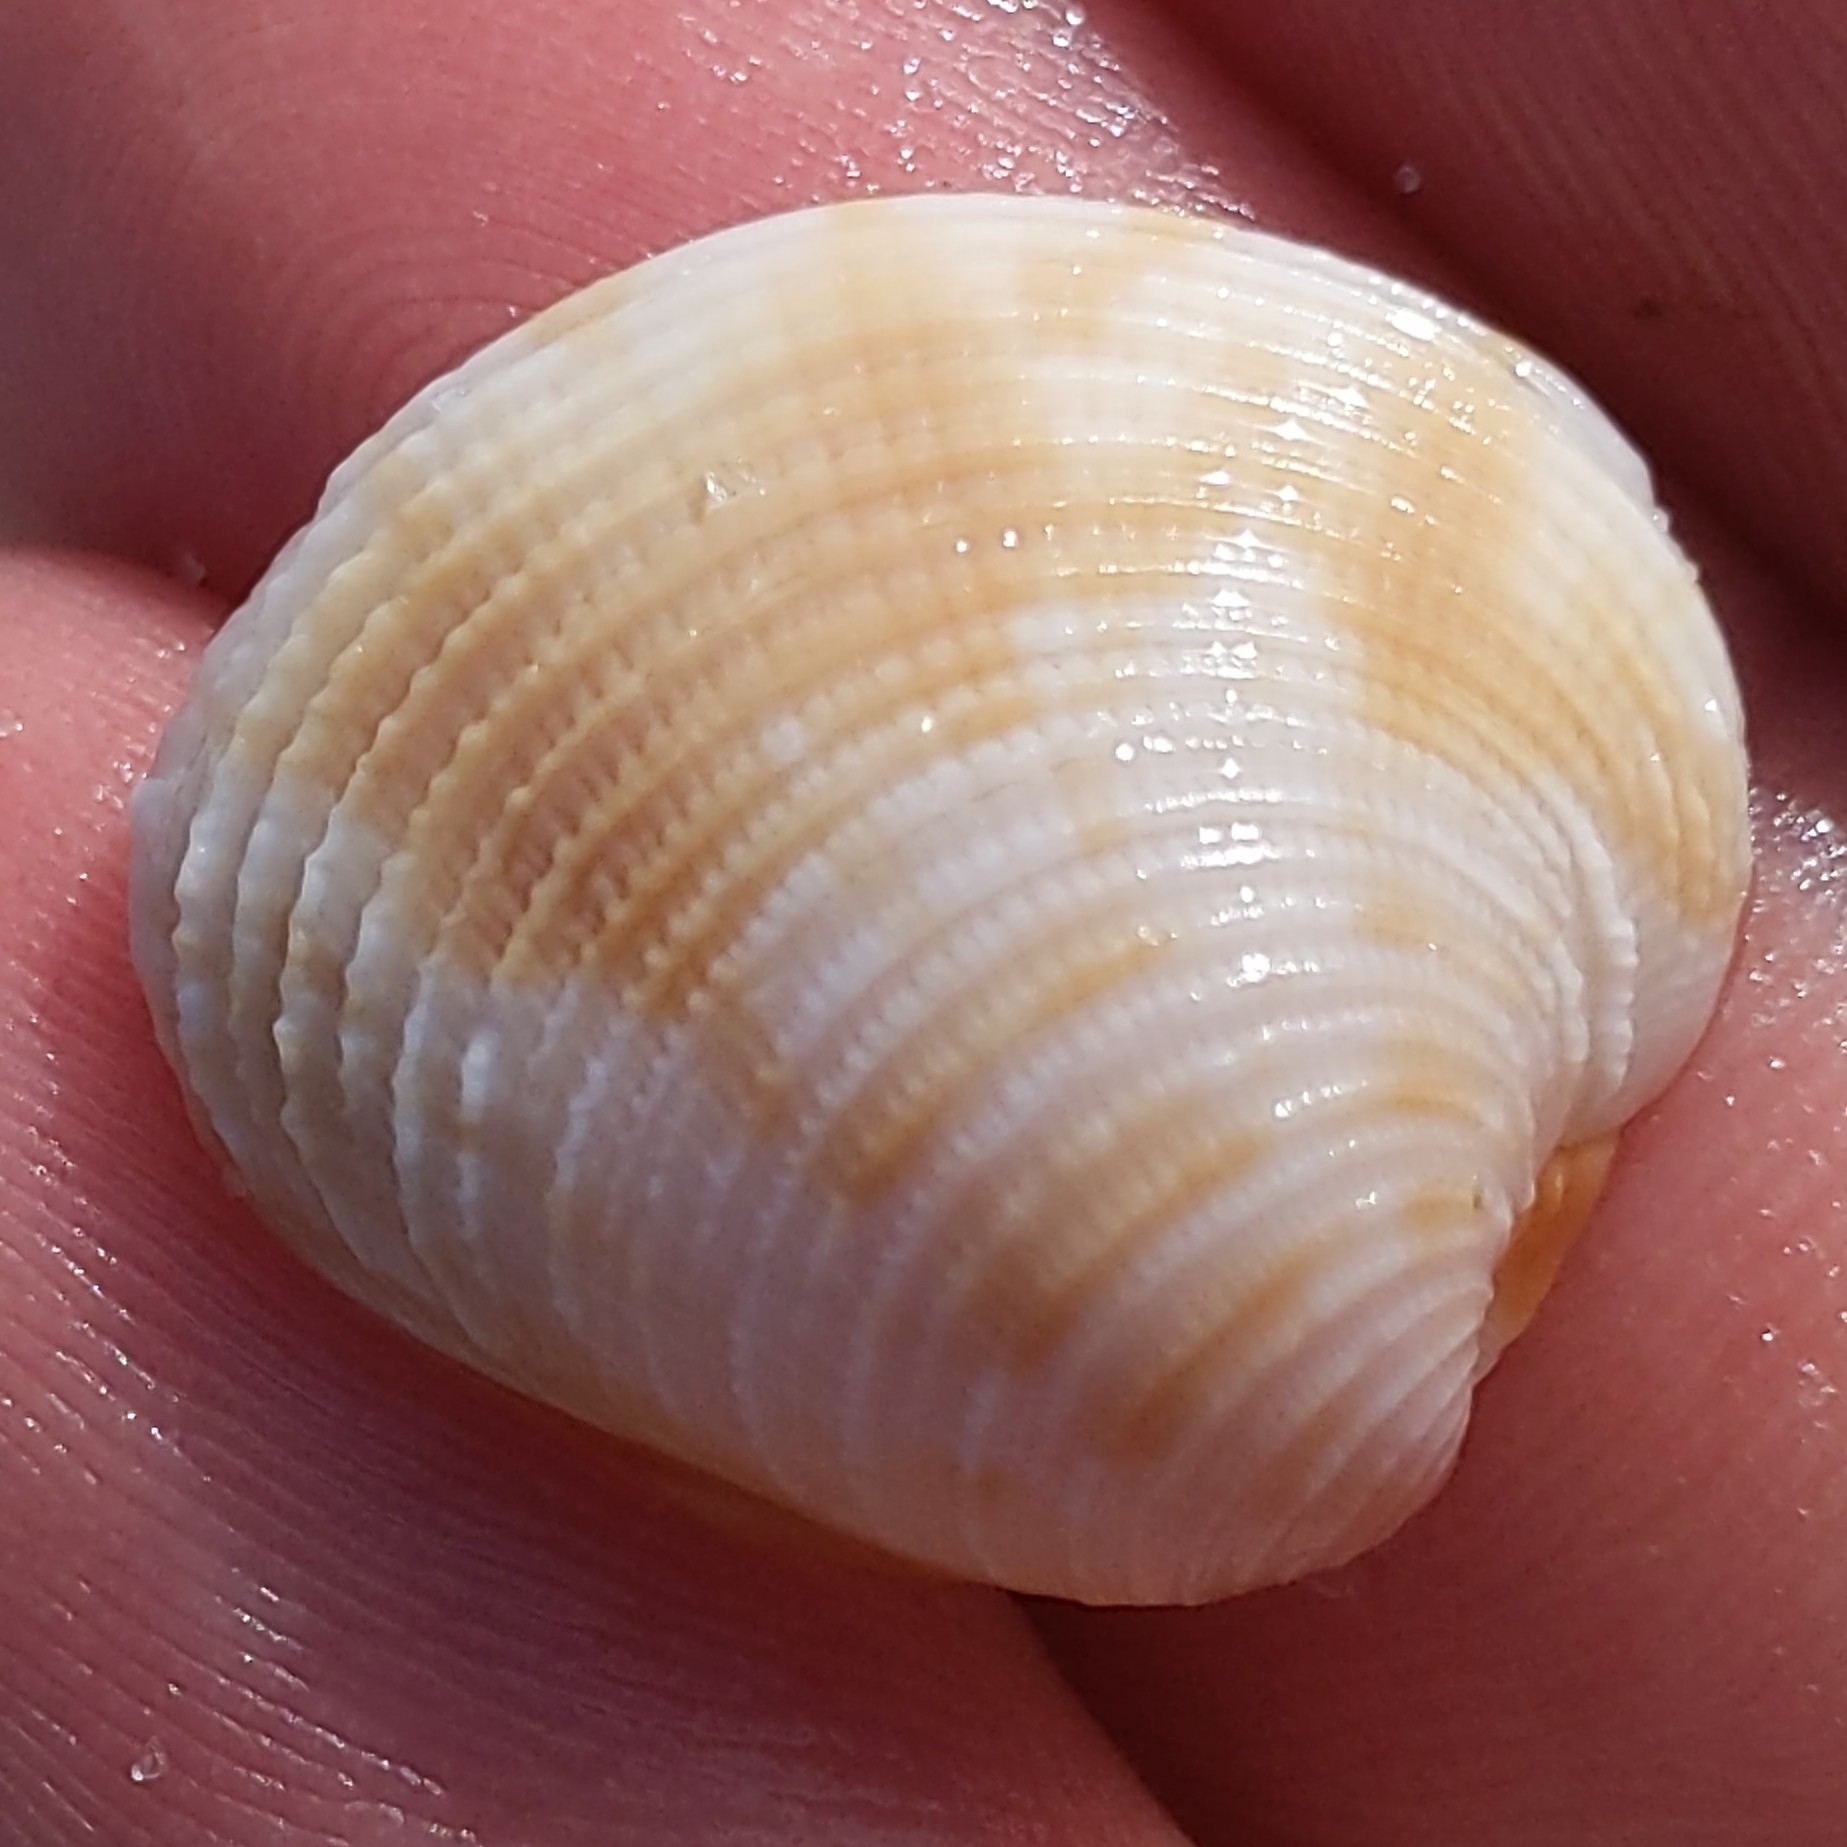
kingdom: Animalia
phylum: Mollusca
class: Bivalvia
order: Venerida
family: Veneridae
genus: Chionopsis
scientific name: Chionopsis intapurpurea
